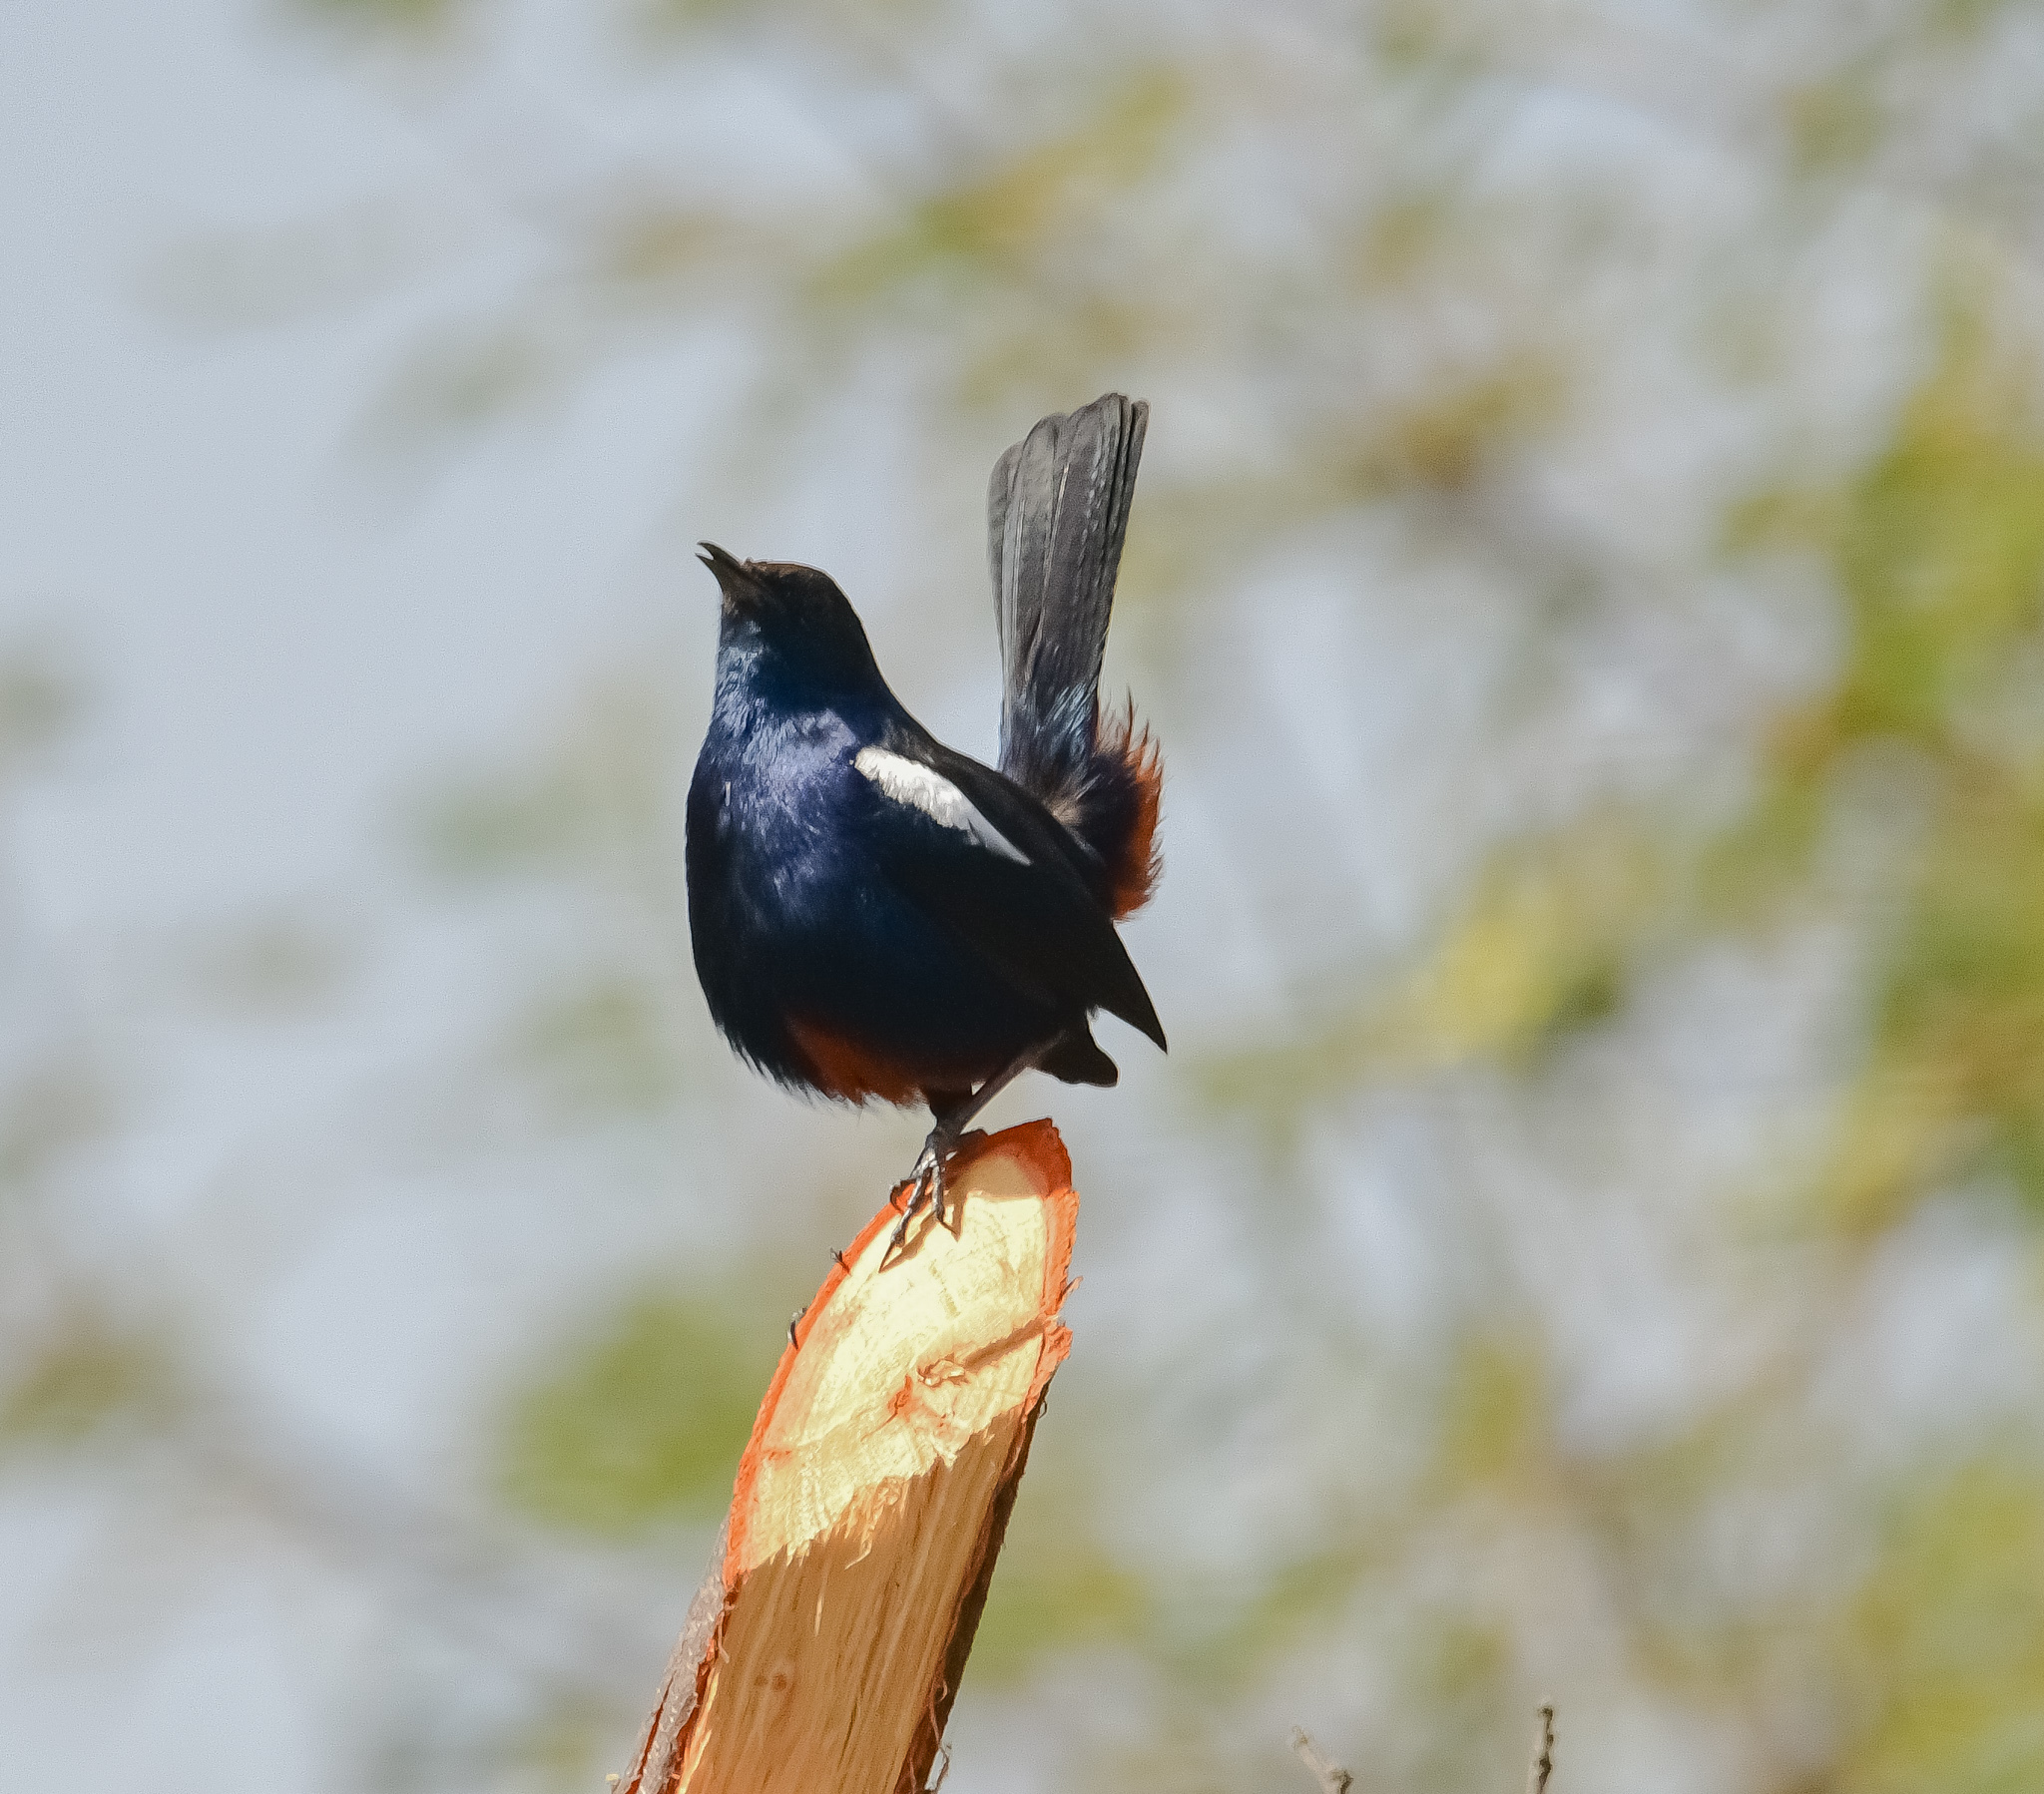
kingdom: Animalia
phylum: Chordata
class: Aves
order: Passeriformes
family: Muscicapidae
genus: Saxicoloides
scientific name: Saxicoloides fulicatus
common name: Indian robin
